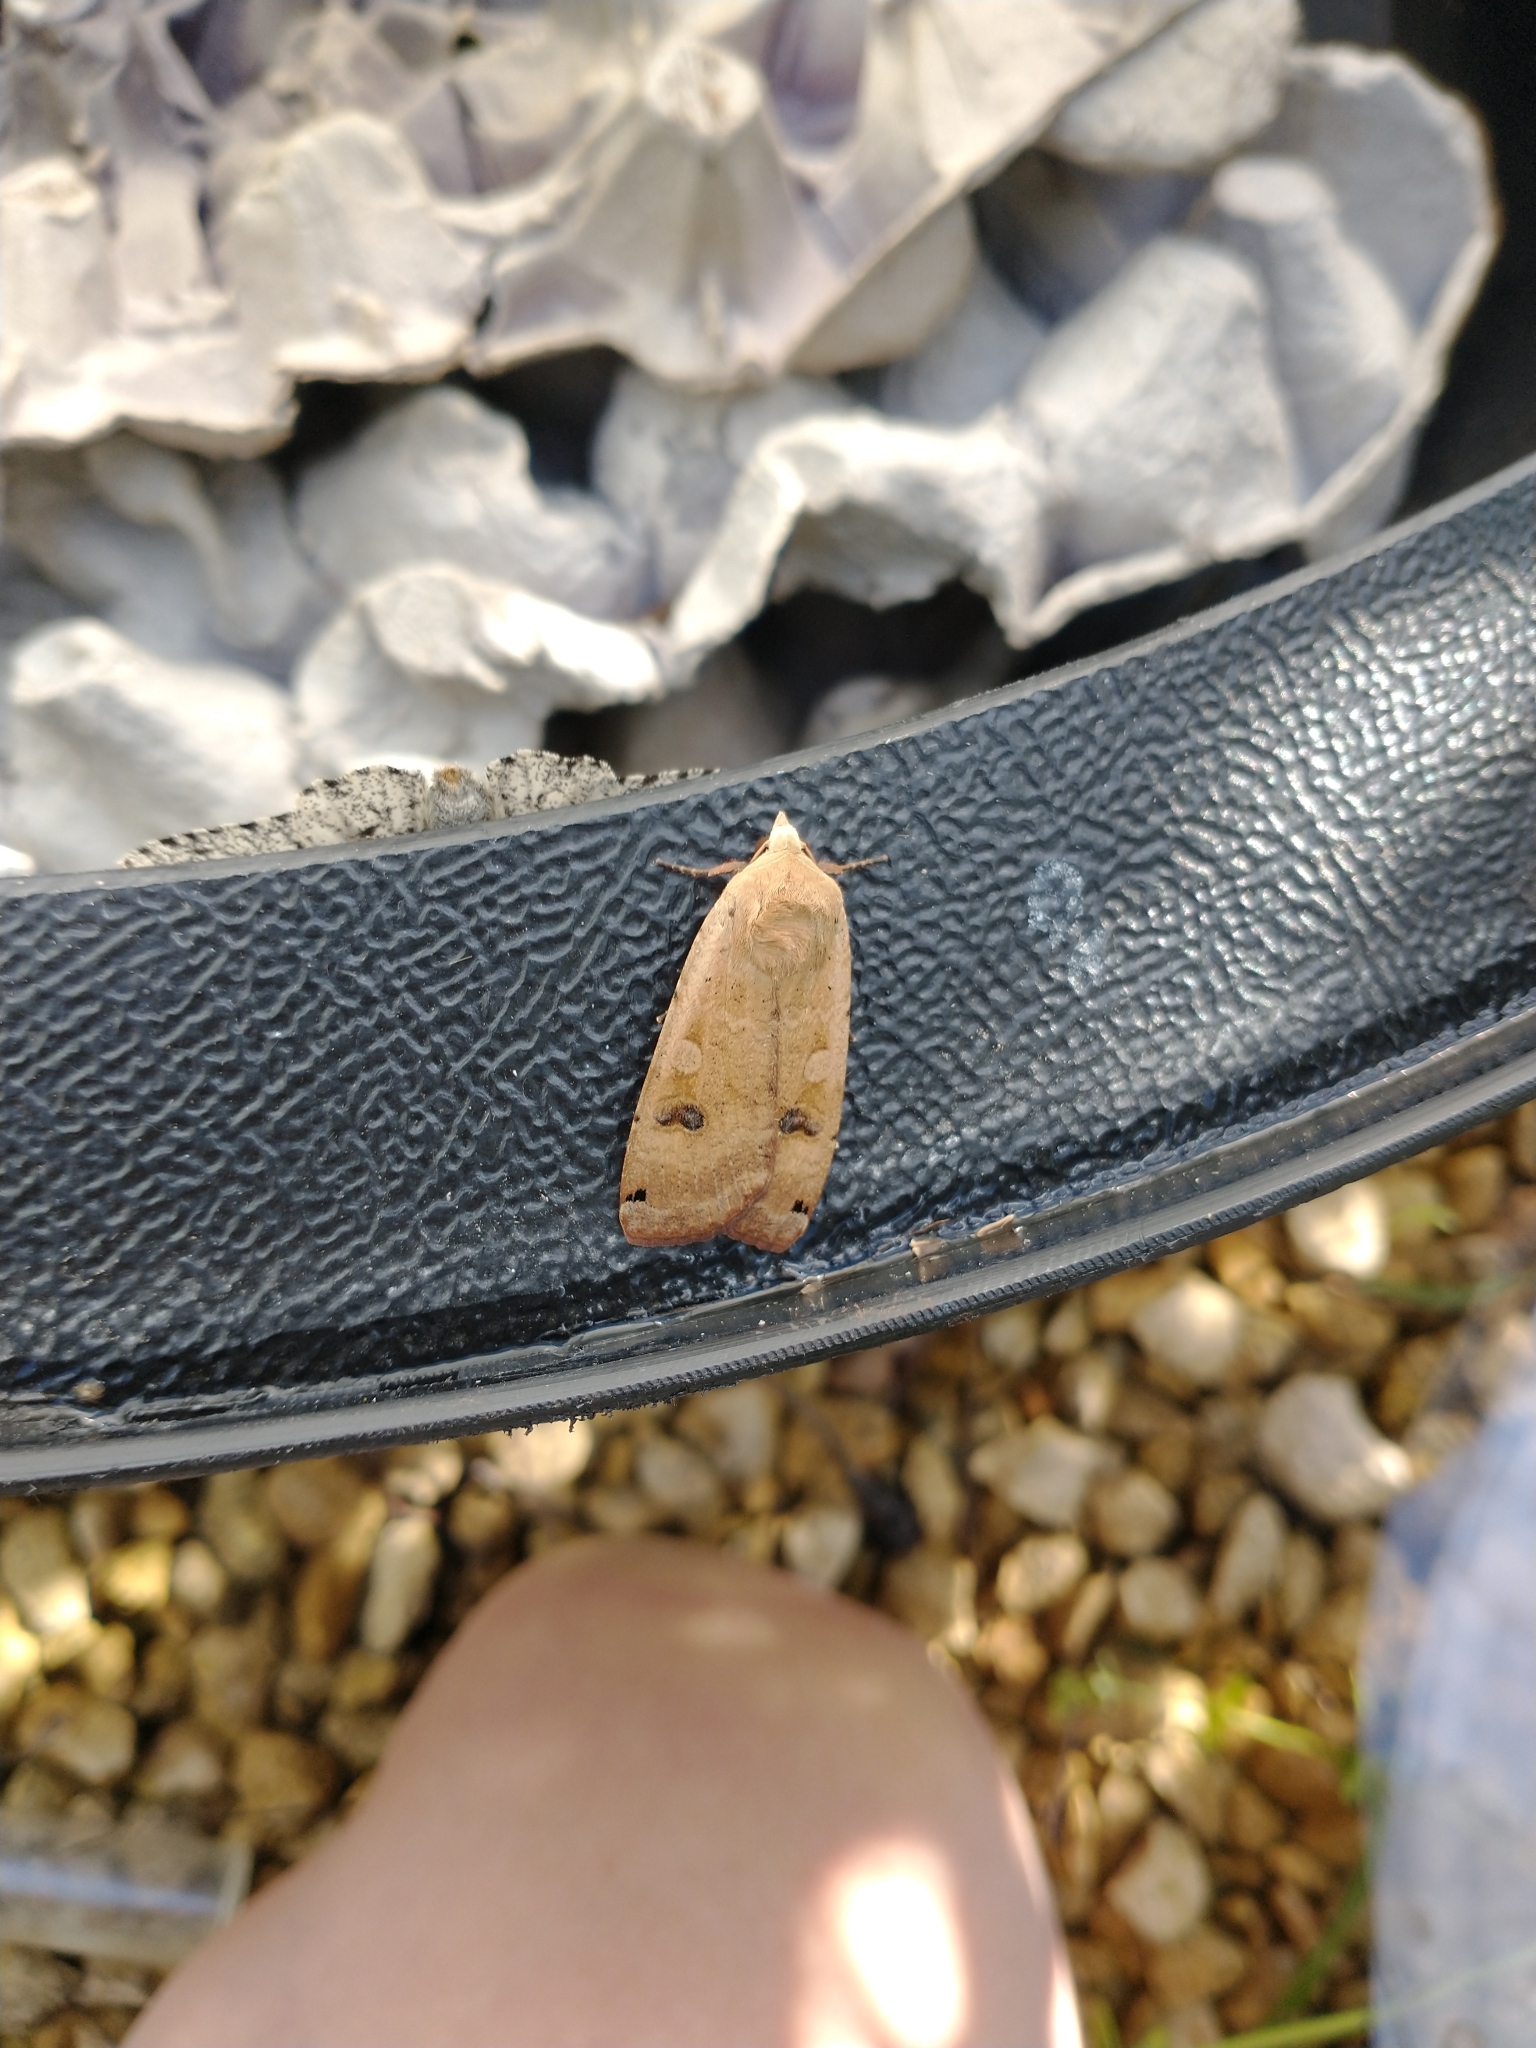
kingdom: Animalia
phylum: Arthropoda
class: Insecta
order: Lepidoptera
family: Noctuidae
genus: Noctua
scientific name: Noctua pronuba
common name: Large yellow underwing
